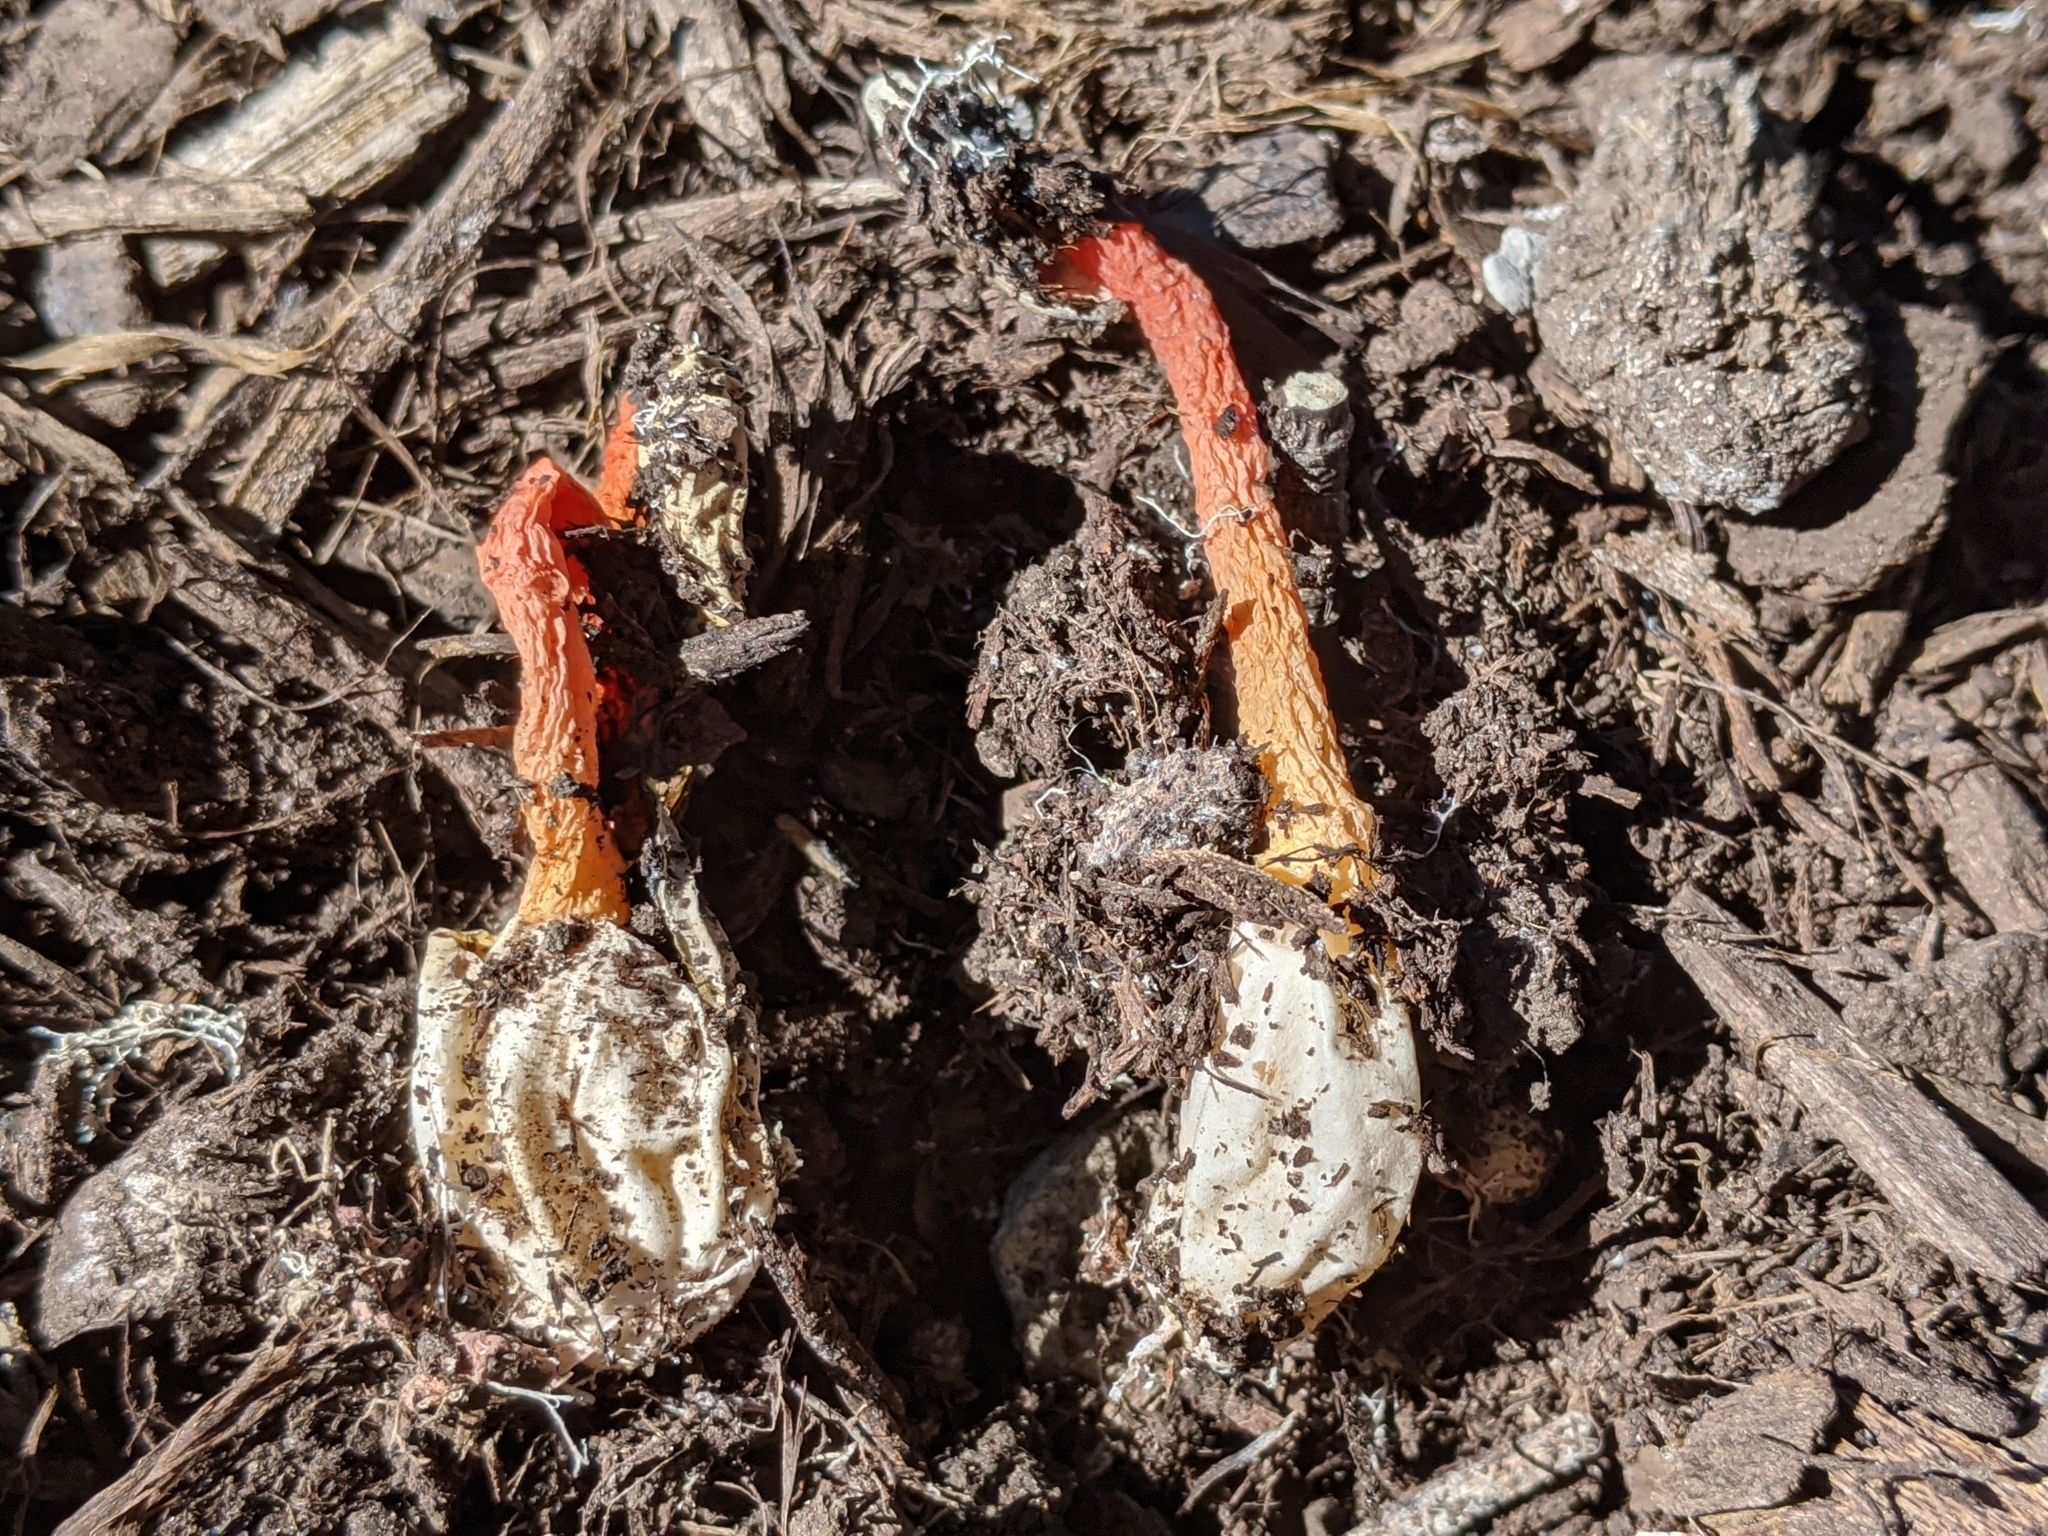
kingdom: Fungi
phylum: Basidiomycota
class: Agaricomycetes
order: Phallales
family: Phallaceae
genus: Phallus
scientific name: Phallus rugulosus
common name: Wrinkly stinkhorn
